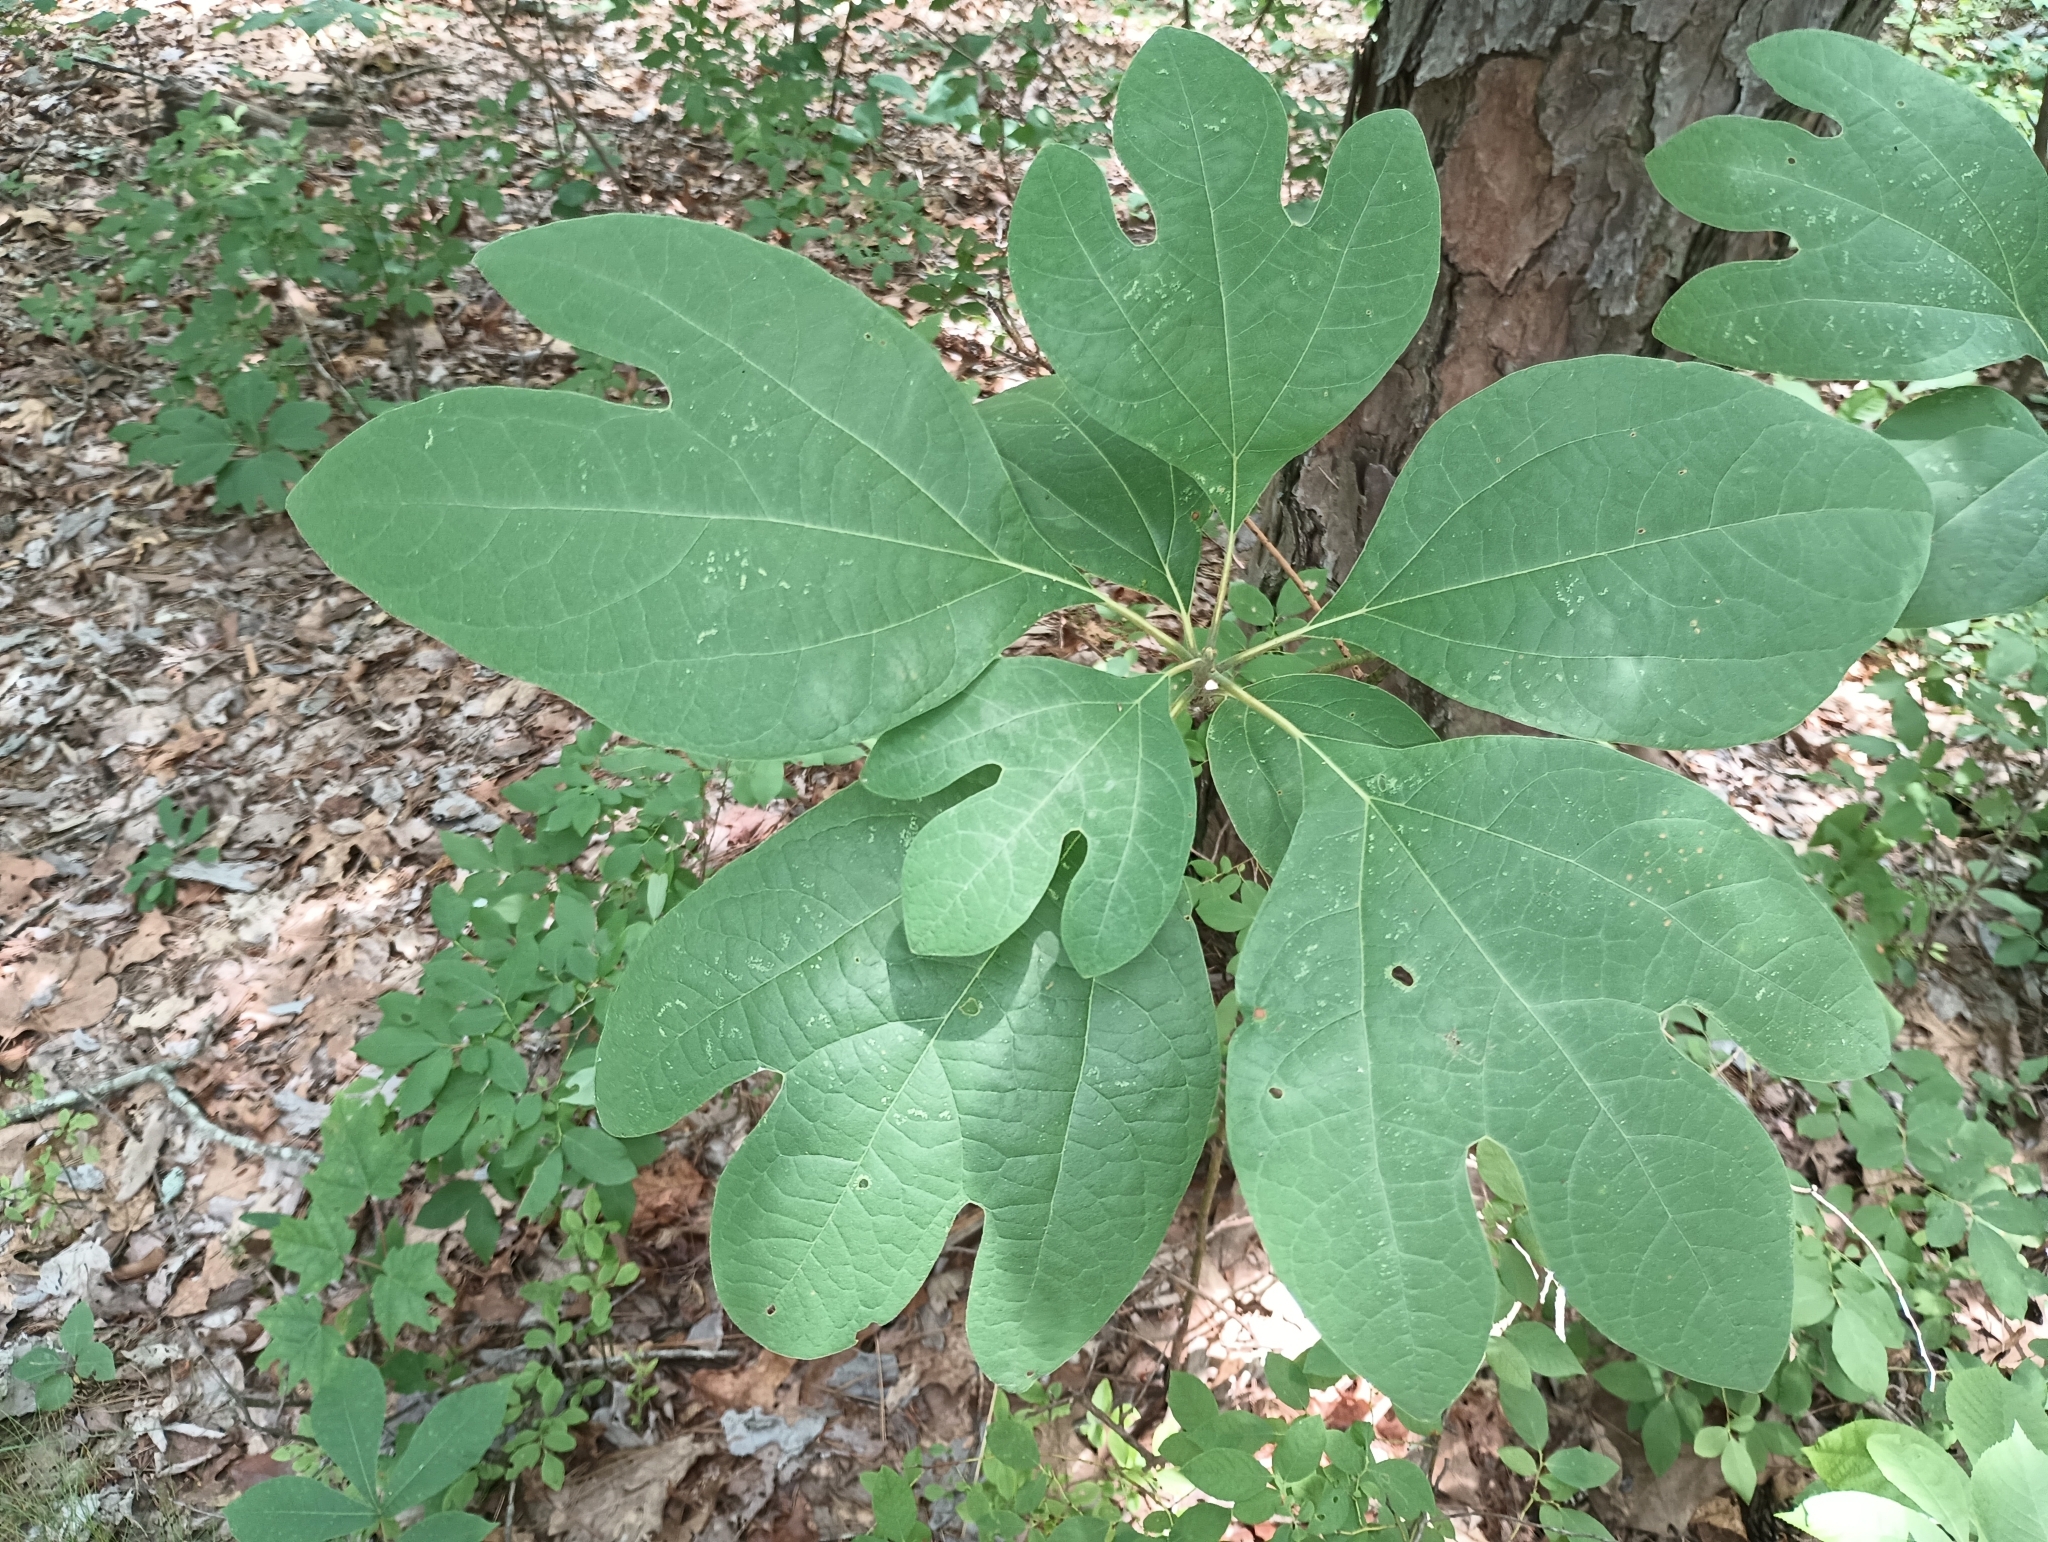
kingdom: Plantae
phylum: Tracheophyta
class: Magnoliopsida
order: Laurales
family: Lauraceae
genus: Sassafras
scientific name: Sassafras albidum
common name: Sassafras
